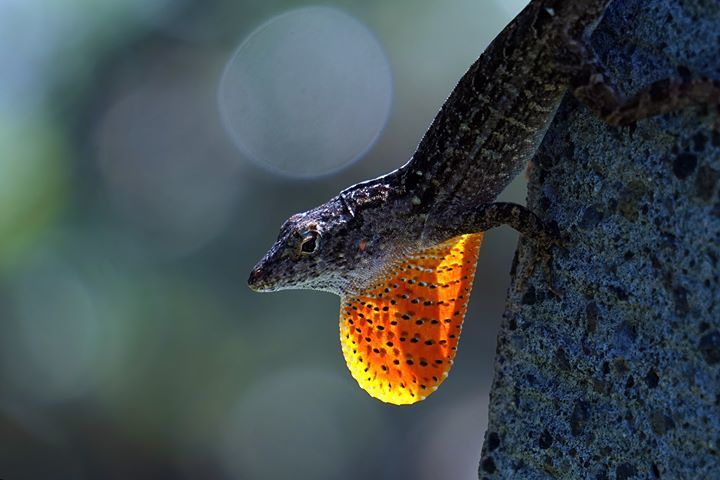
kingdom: Animalia
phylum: Chordata
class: Squamata
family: Dactyloidae
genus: Anolis
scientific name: Anolis sagrei
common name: Brown anole
